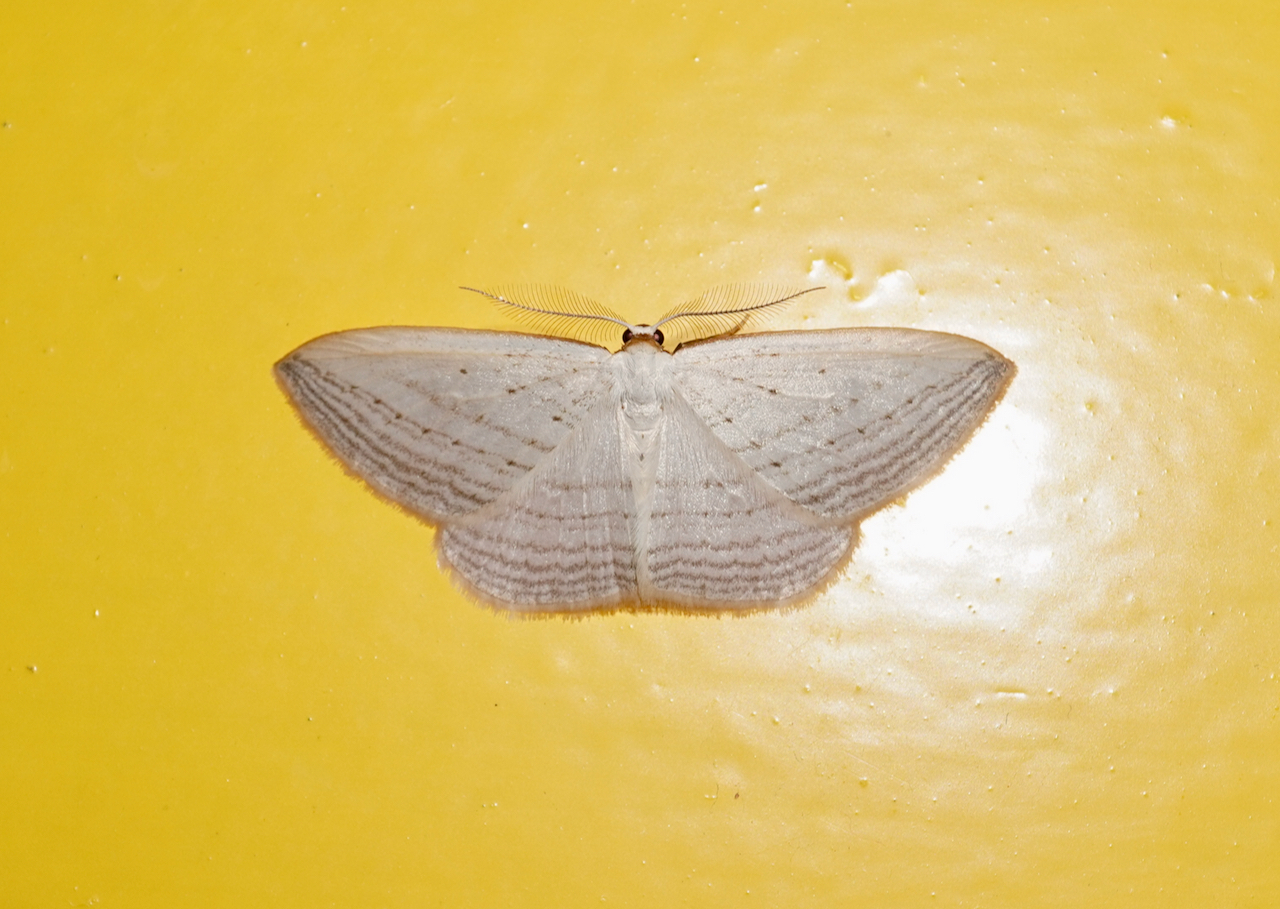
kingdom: Animalia
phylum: Arthropoda
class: Insecta
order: Lepidoptera
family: Geometridae
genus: Orthoclydon
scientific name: Orthoclydon praefectata
